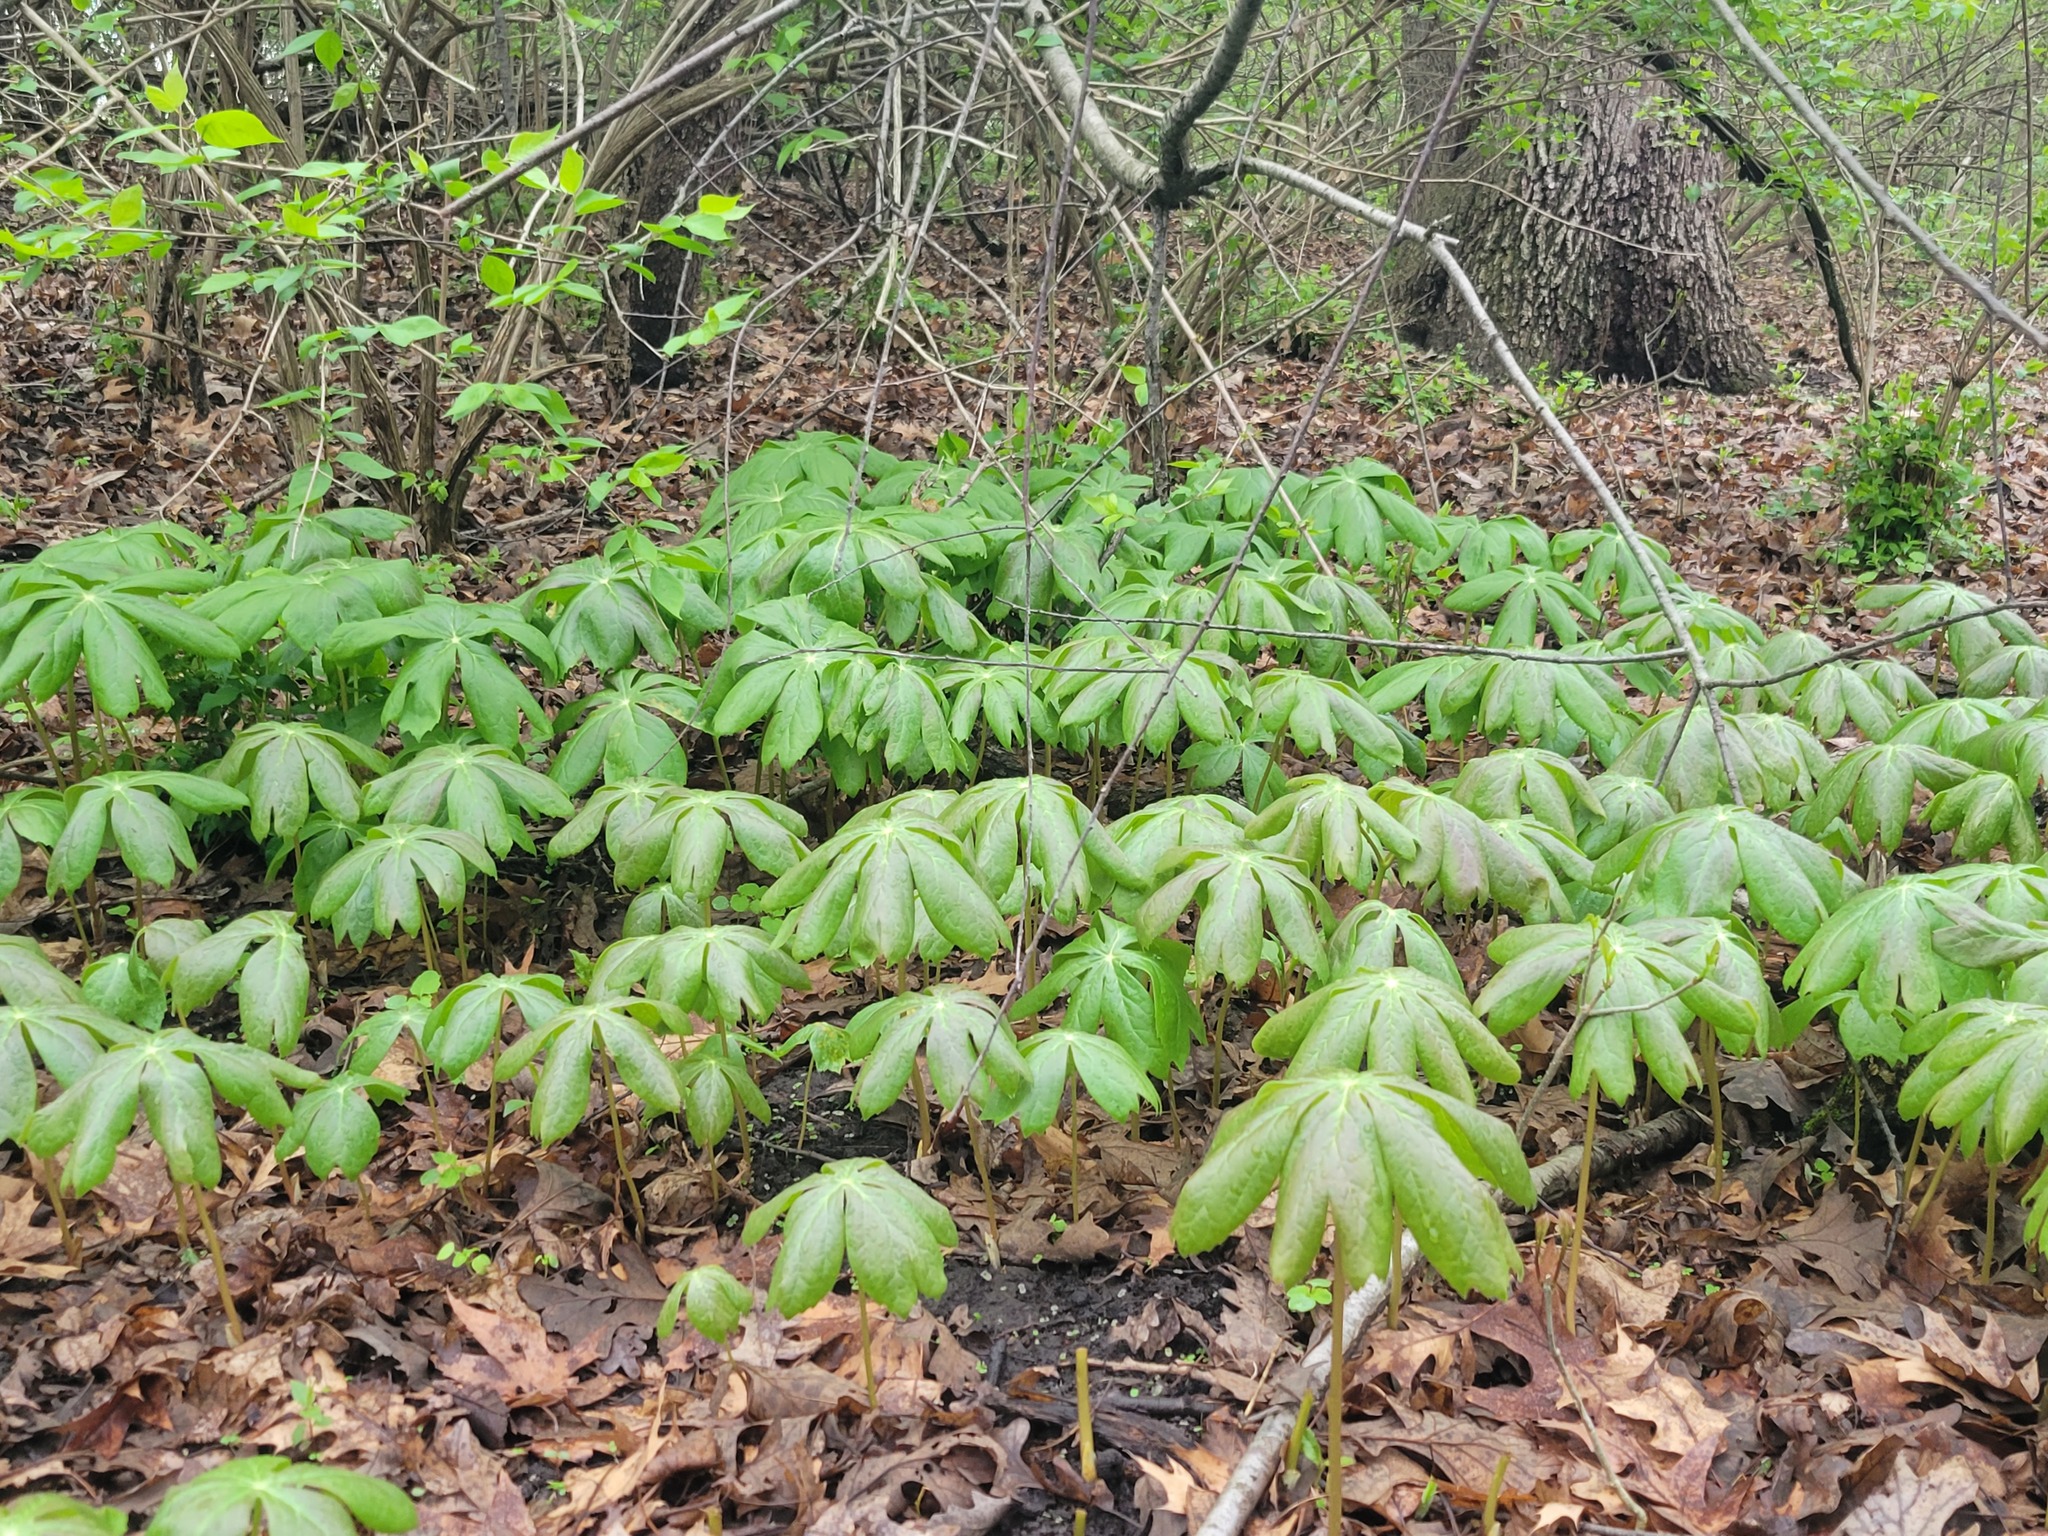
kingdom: Plantae
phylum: Tracheophyta
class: Magnoliopsida
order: Ranunculales
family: Berberidaceae
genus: Podophyllum
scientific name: Podophyllum peltatum
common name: Wild mandrake
